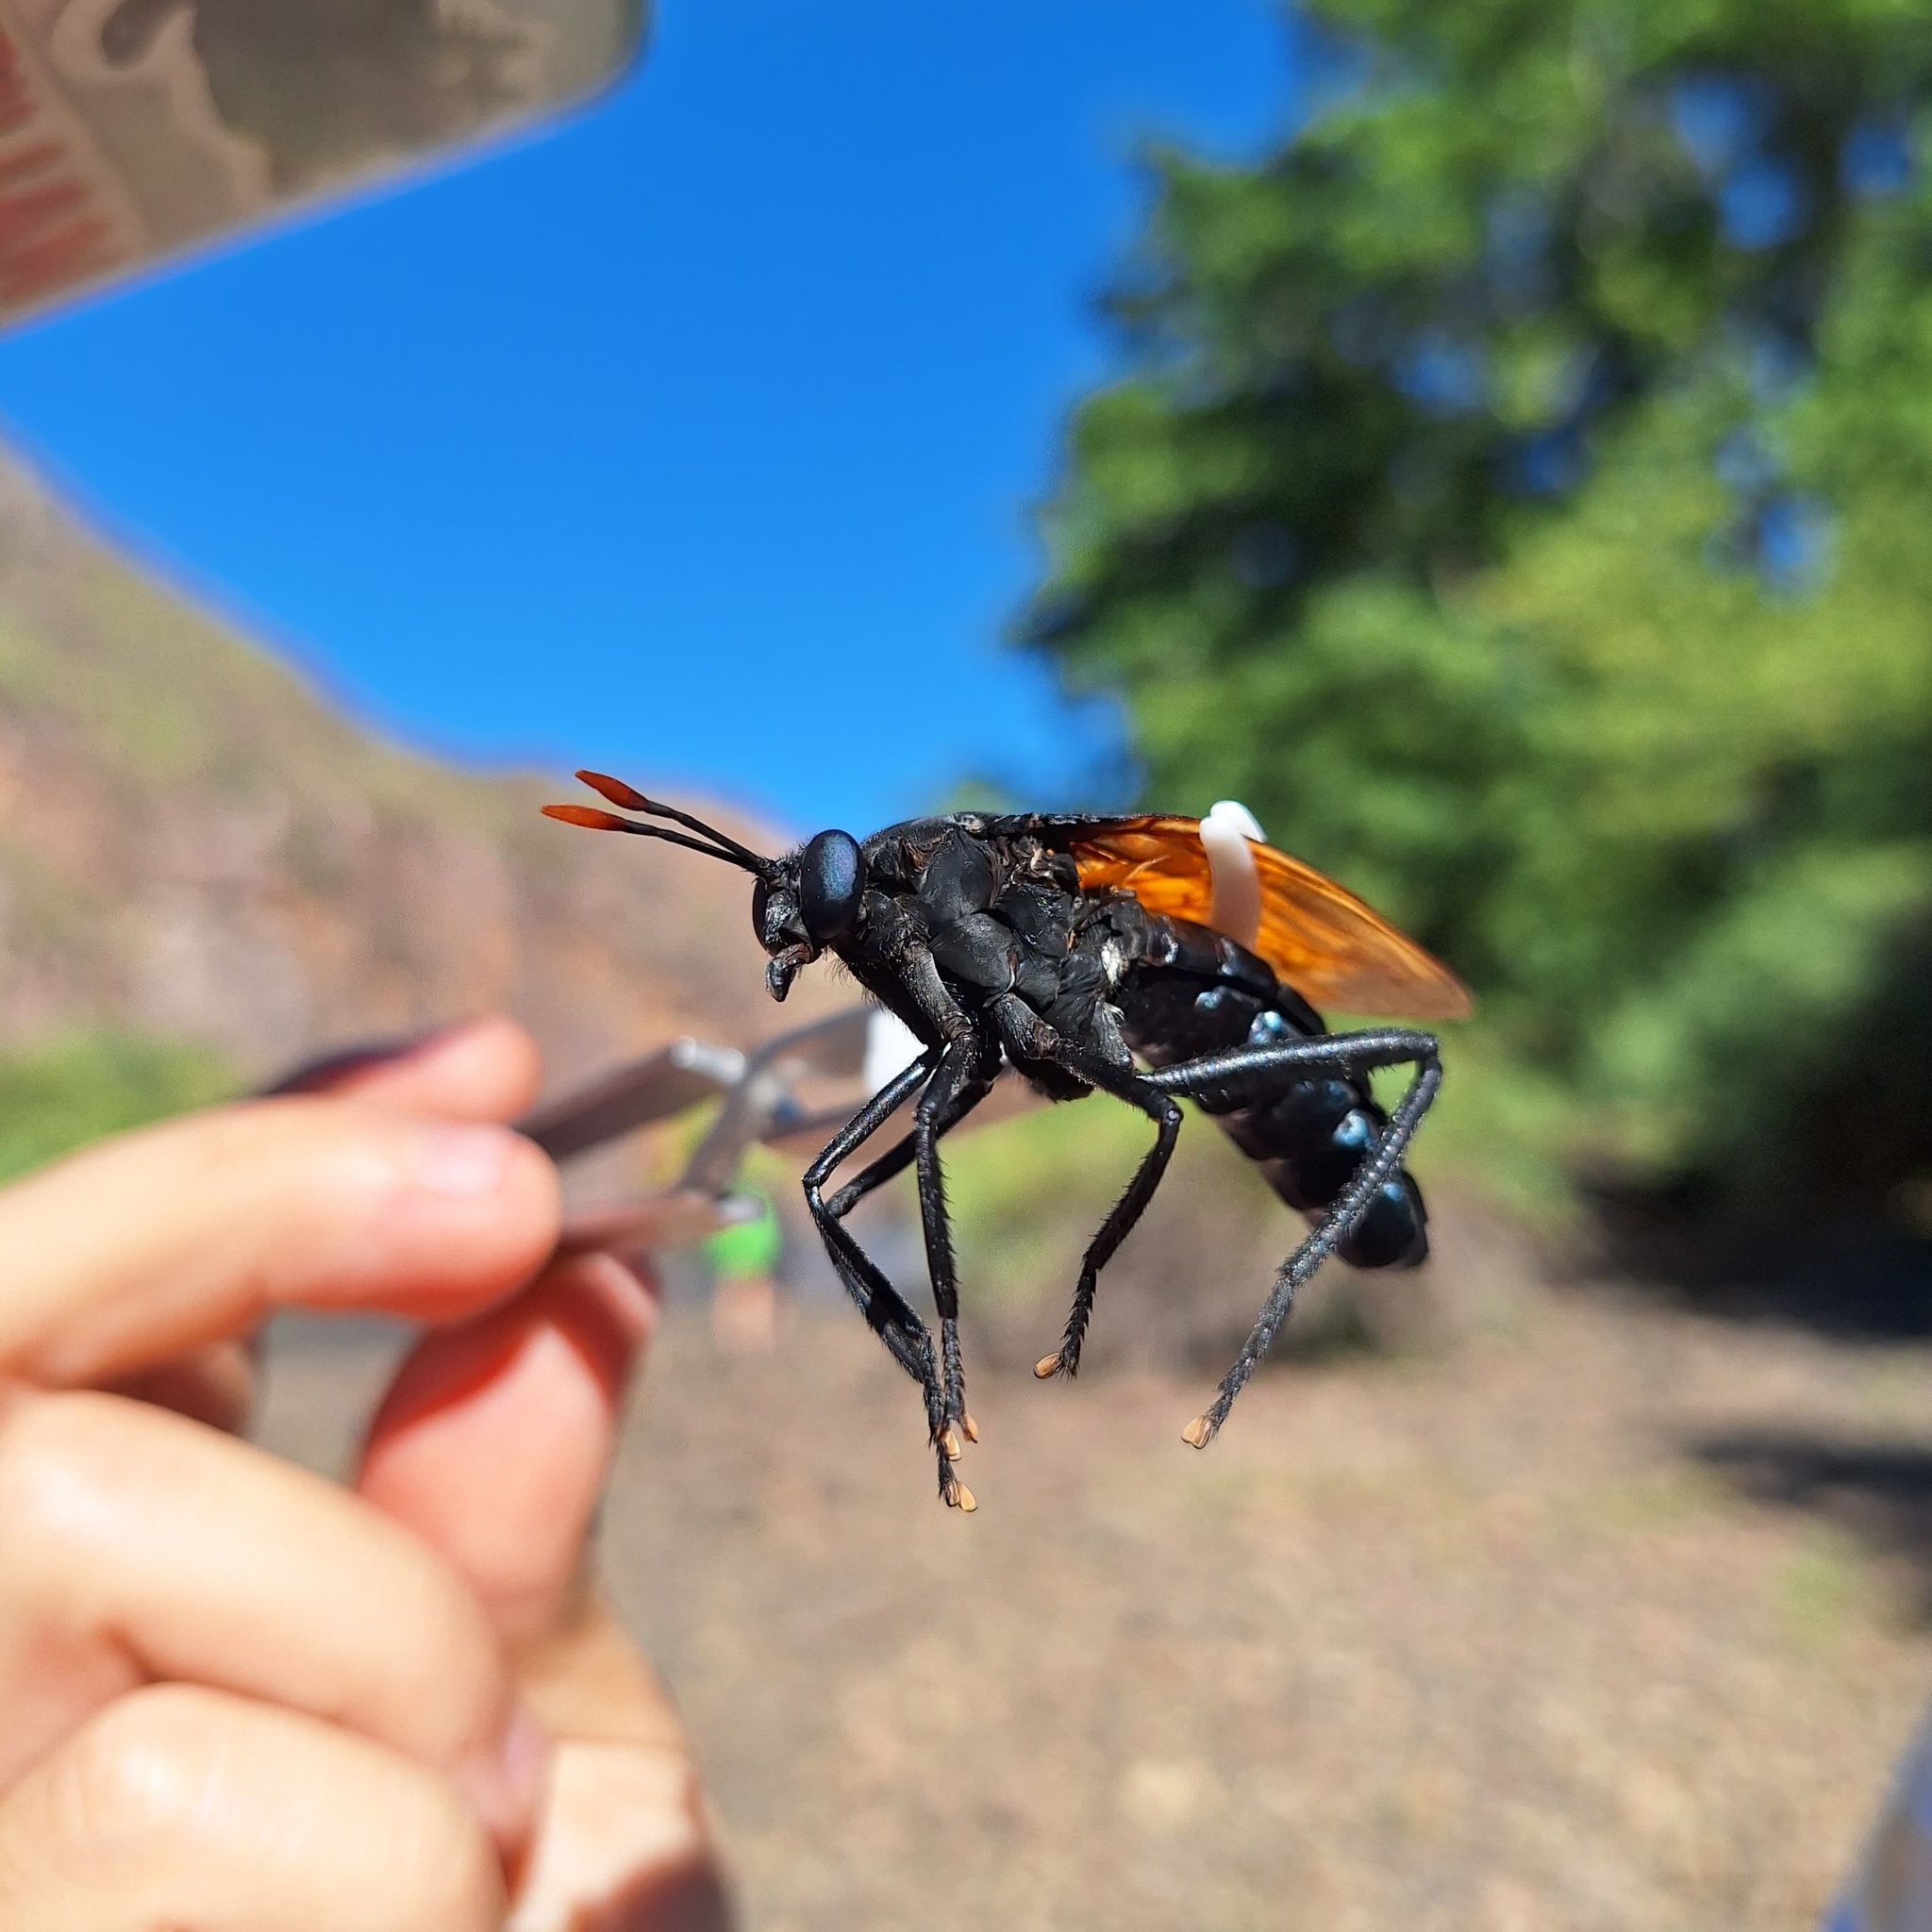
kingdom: Animalia
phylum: Arthropoda
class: Insecta
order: Diptera
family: Mydidae
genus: Mydas
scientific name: Mydas rubidapex
